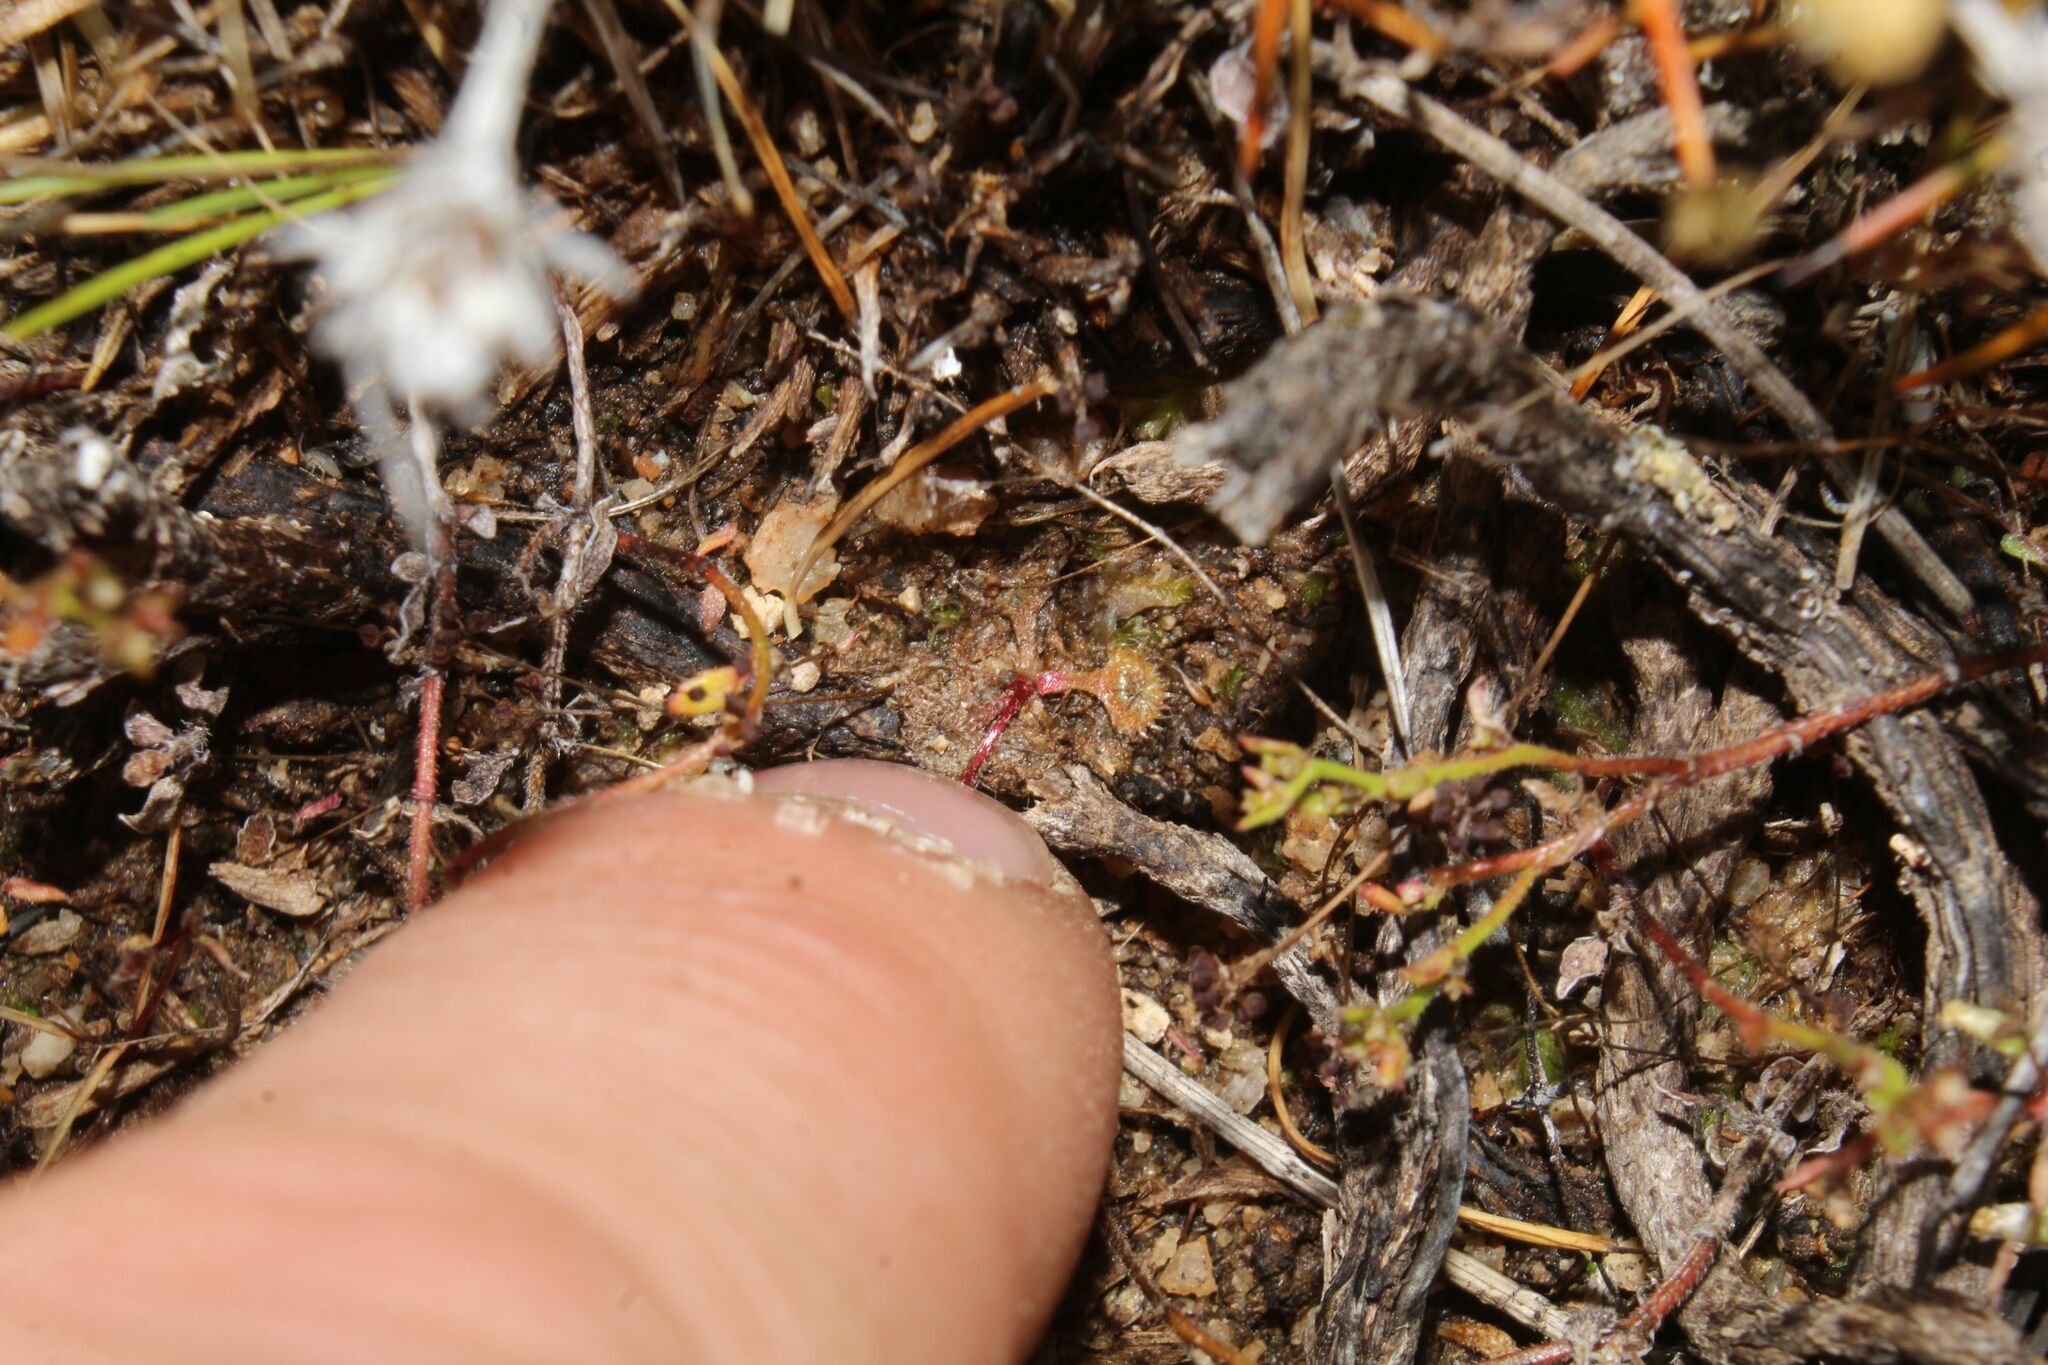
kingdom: Plantae
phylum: Tracheophyta
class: Magnoliopsida
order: Caryophyllales
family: Droseraceae
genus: Drosera
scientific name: Drosera glanduligera
